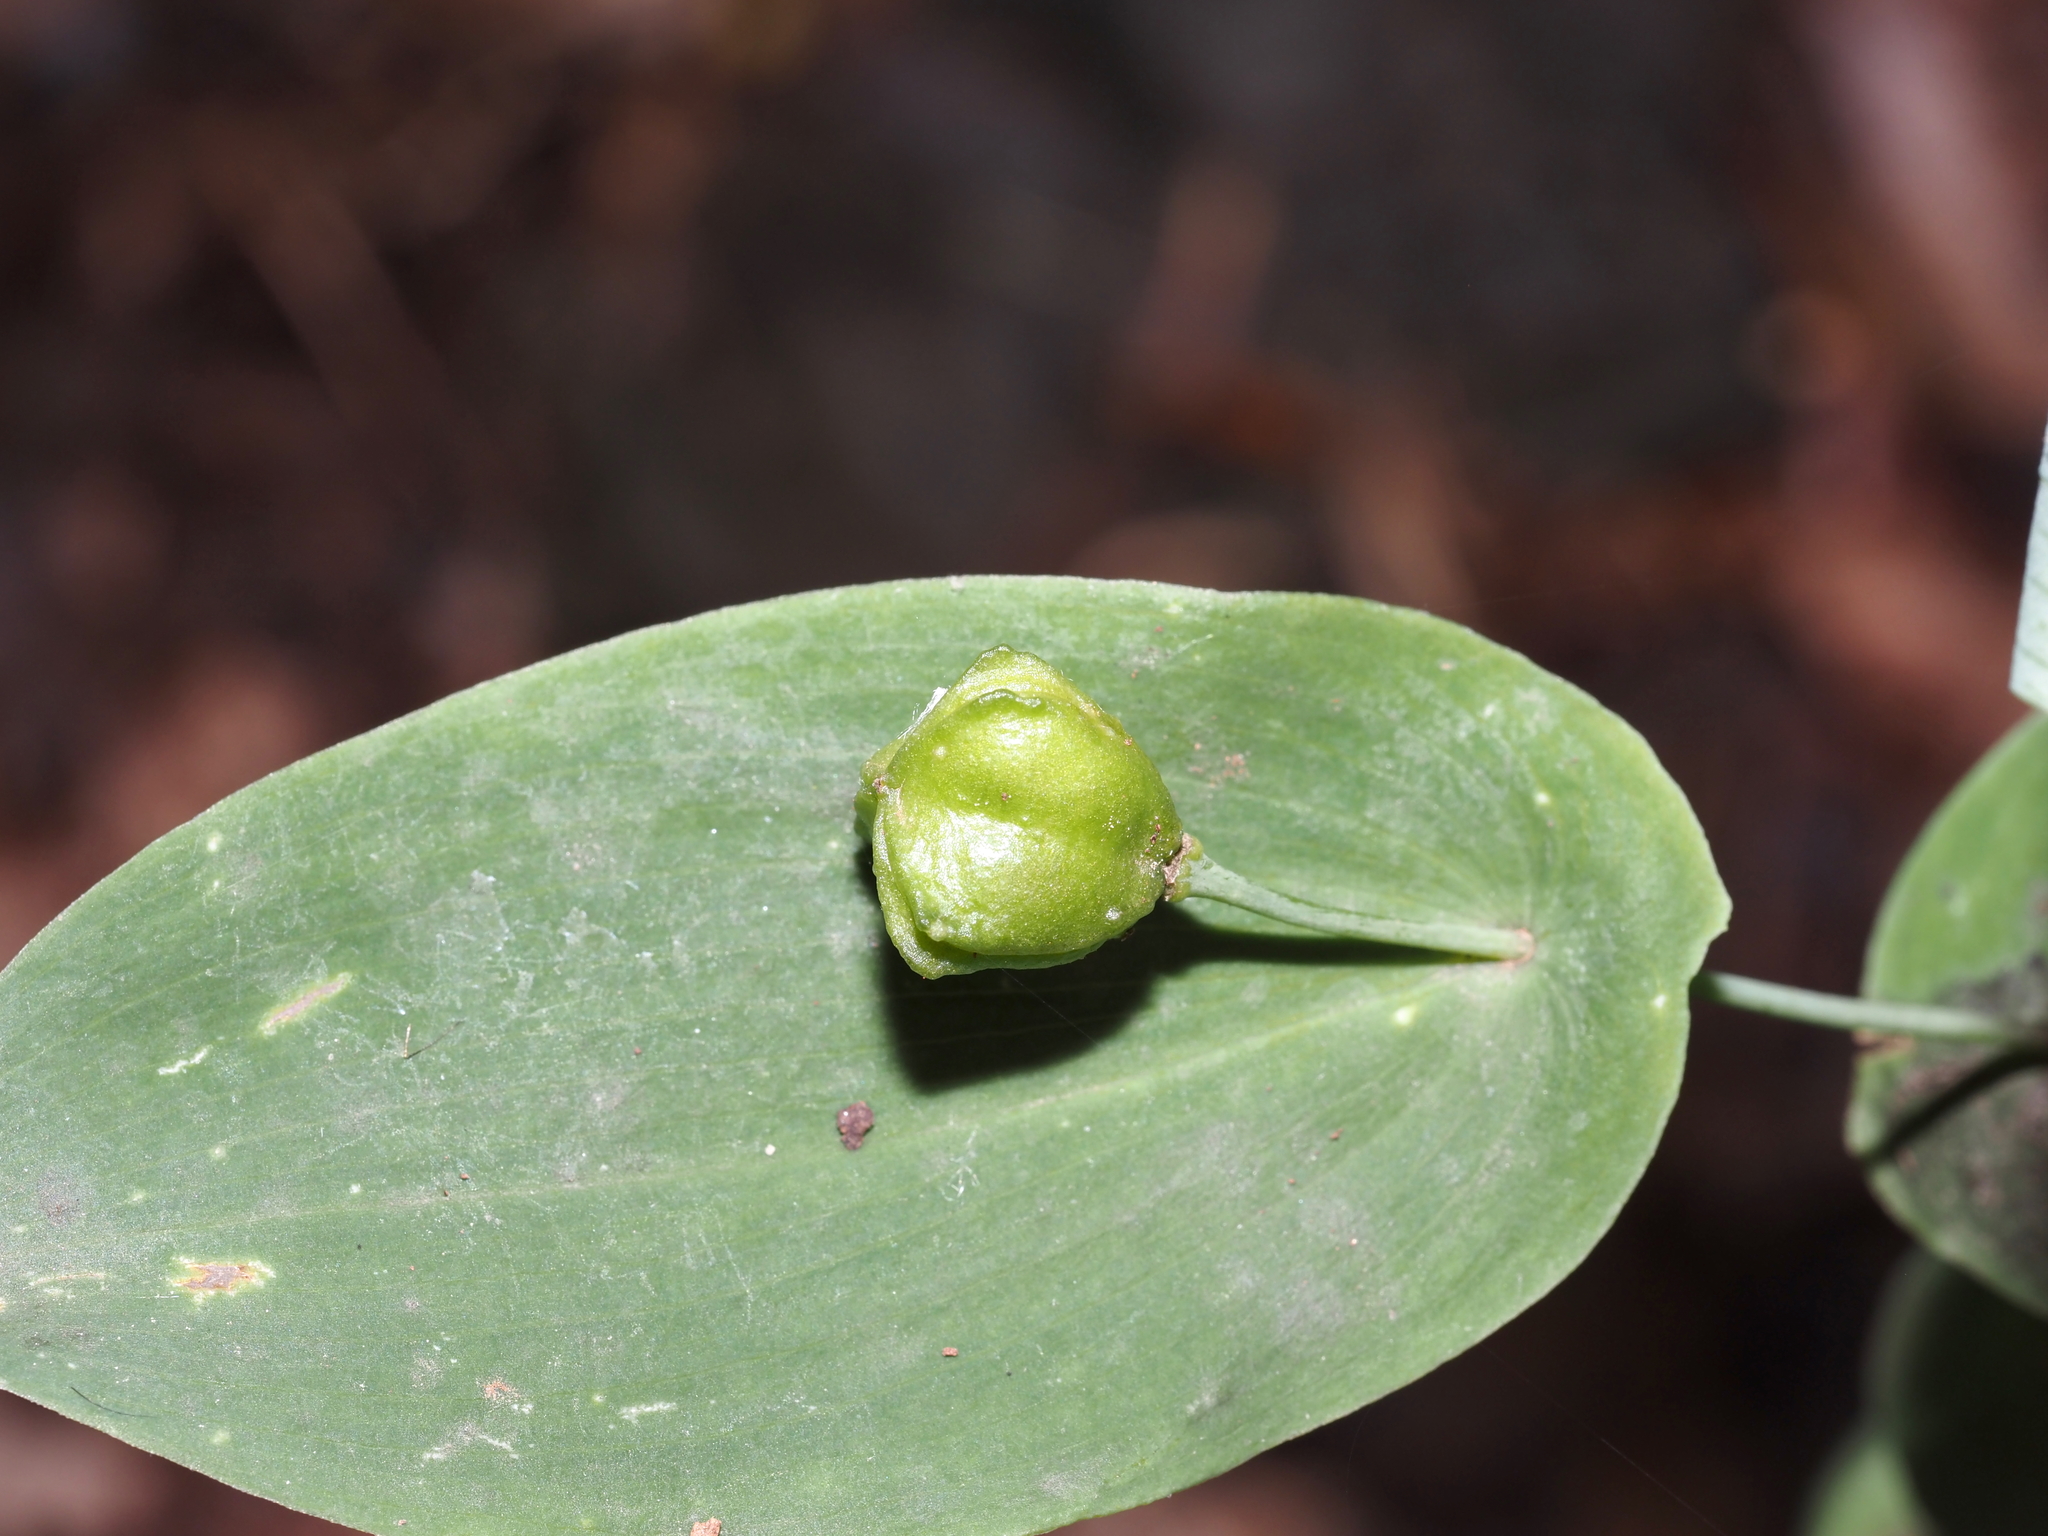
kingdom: Plantae
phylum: Tracheophyta
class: Liliopsida
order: Liliales
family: Colchicaceae
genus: Uvularia
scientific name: Uvularia perfoliata
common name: Perfoliate bellwort
